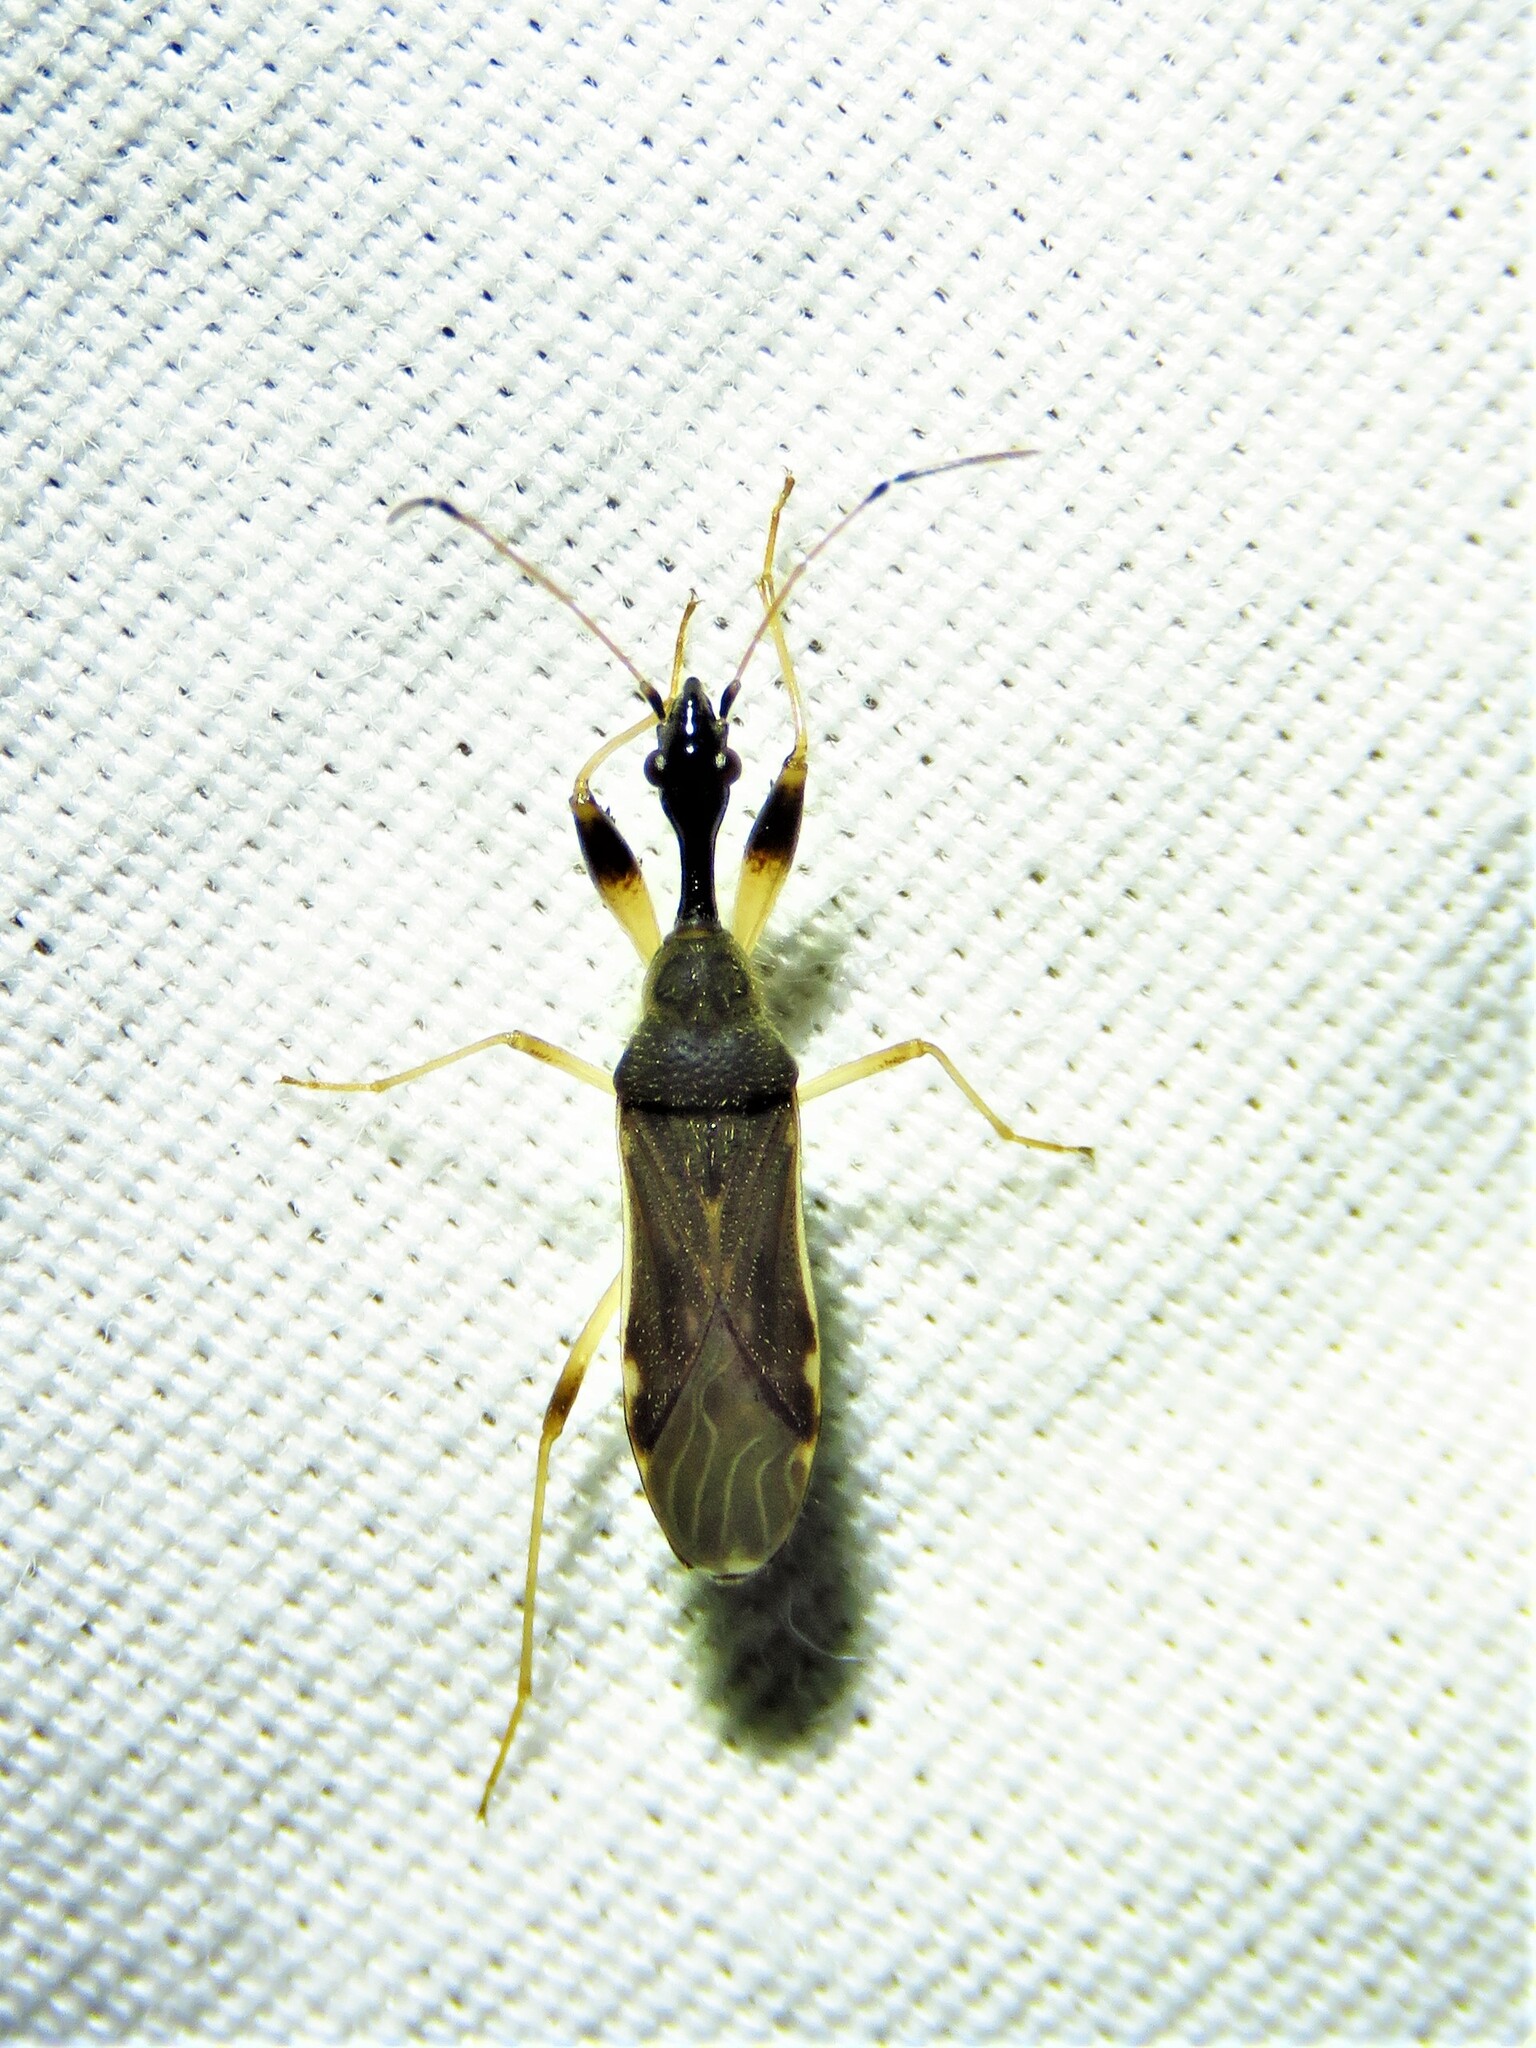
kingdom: Animalia
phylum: Arthropoda
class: Insecta
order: Hemiptera
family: Rhyparochromidae
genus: Myodocha
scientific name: Myodocha serripes
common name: Long-necked seed bug
